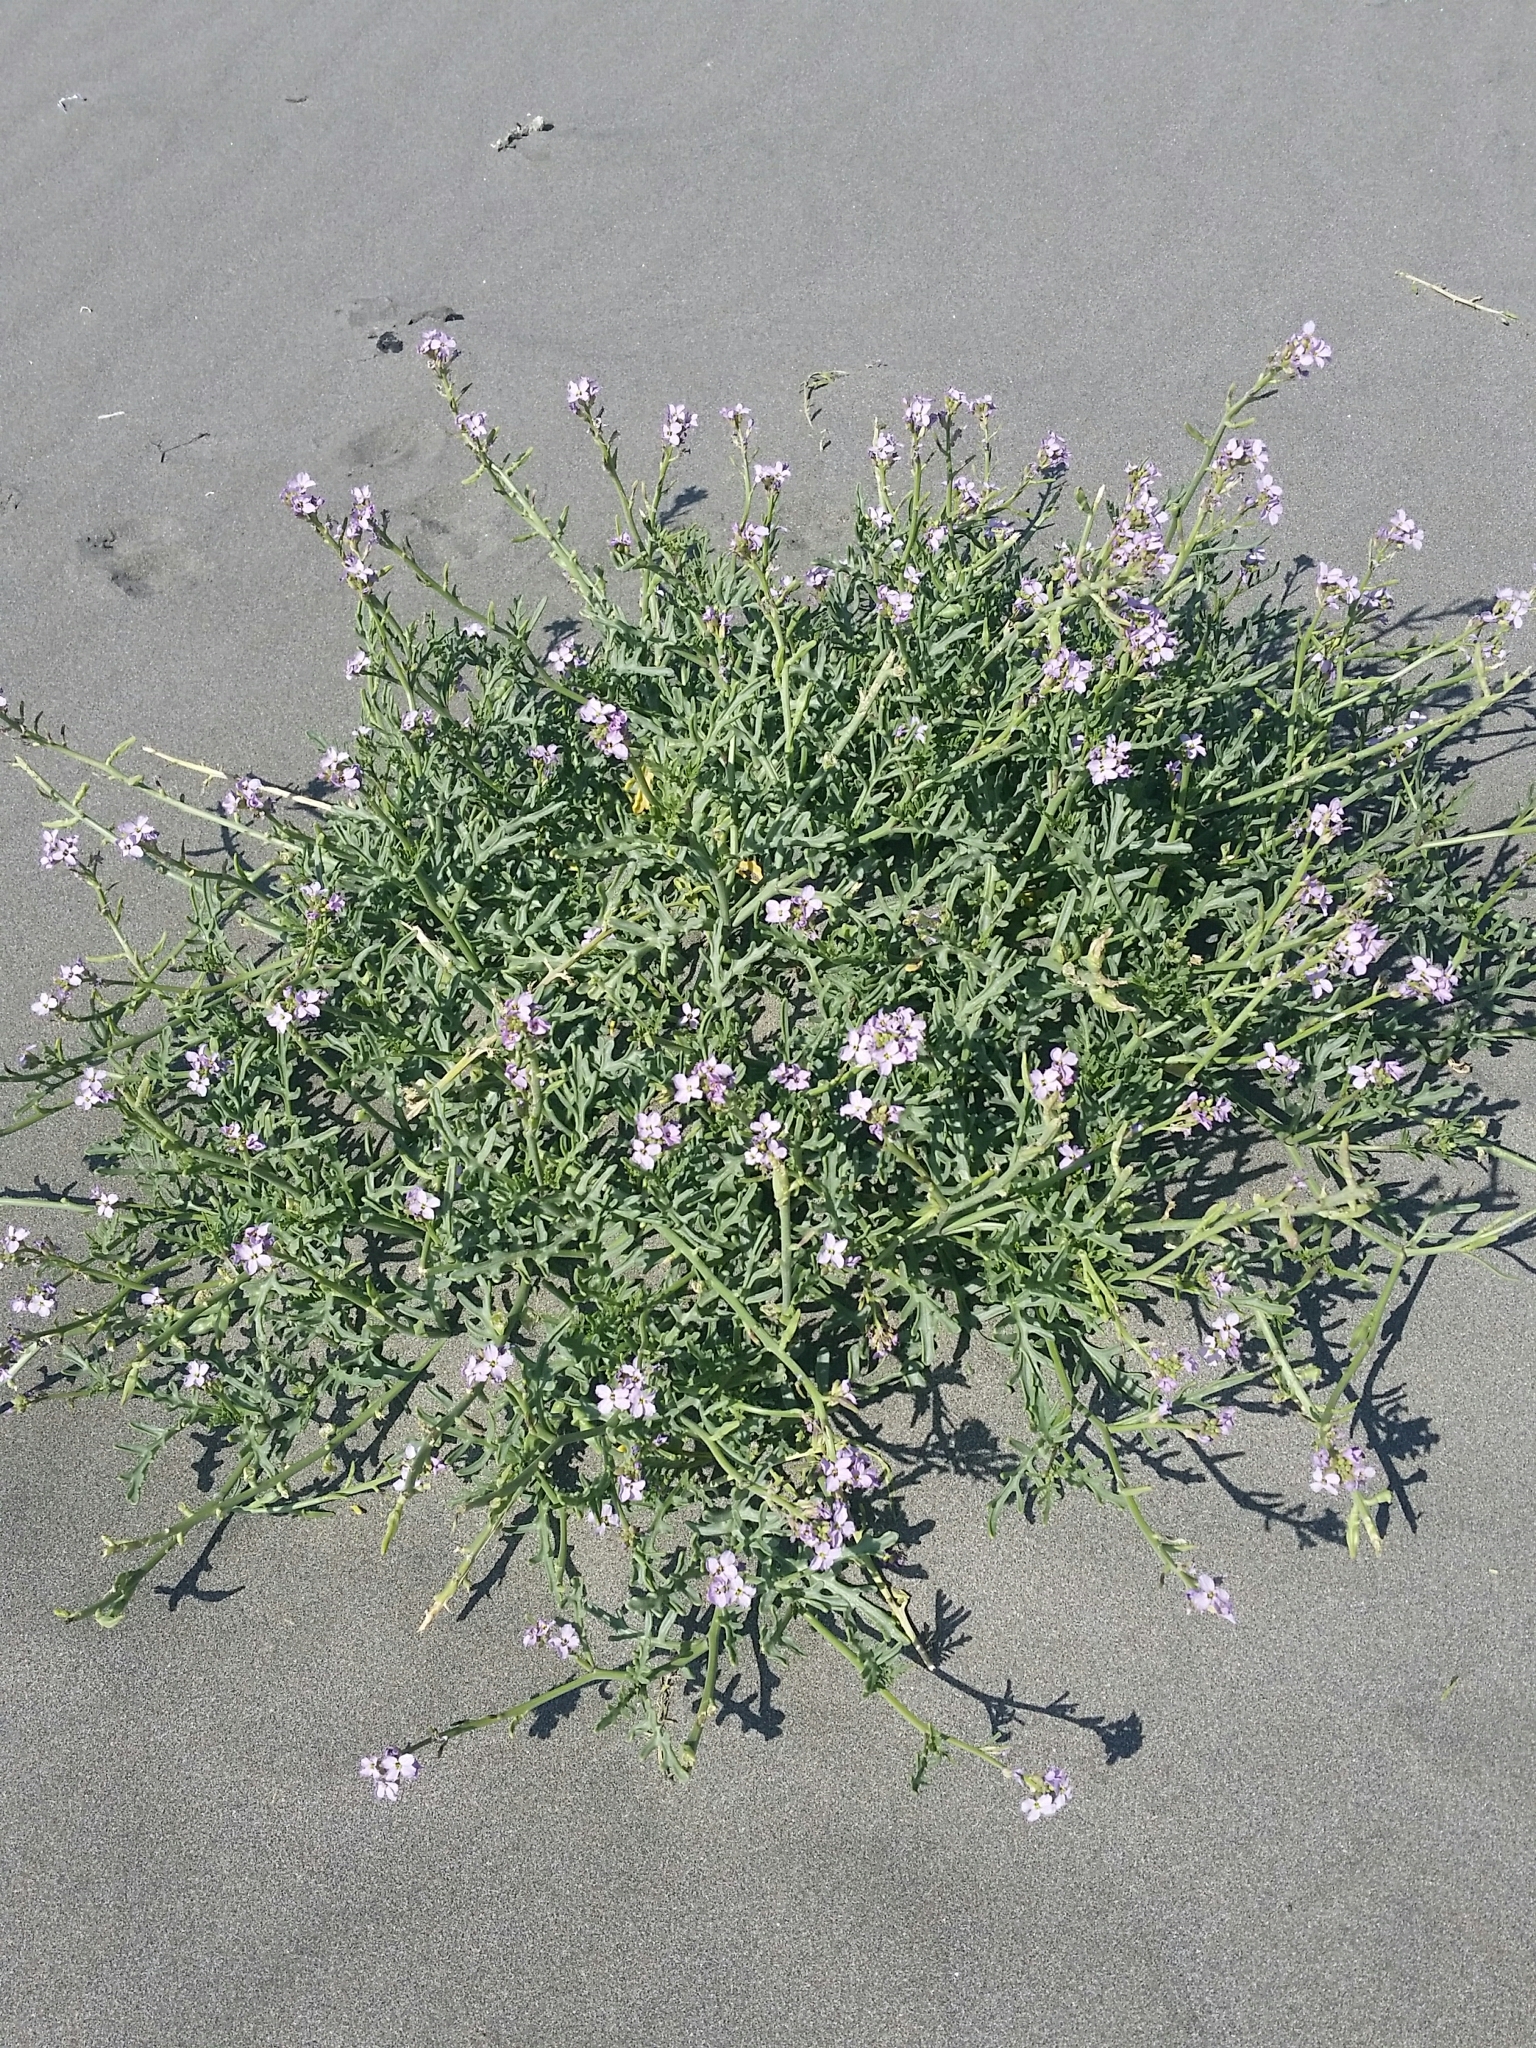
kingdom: Plantae
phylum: Tracheophyta
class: Magnoliopsida
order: Brassicales
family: Brassicaceae
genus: Cakile
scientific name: Cakile maritima
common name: Sea rocket
